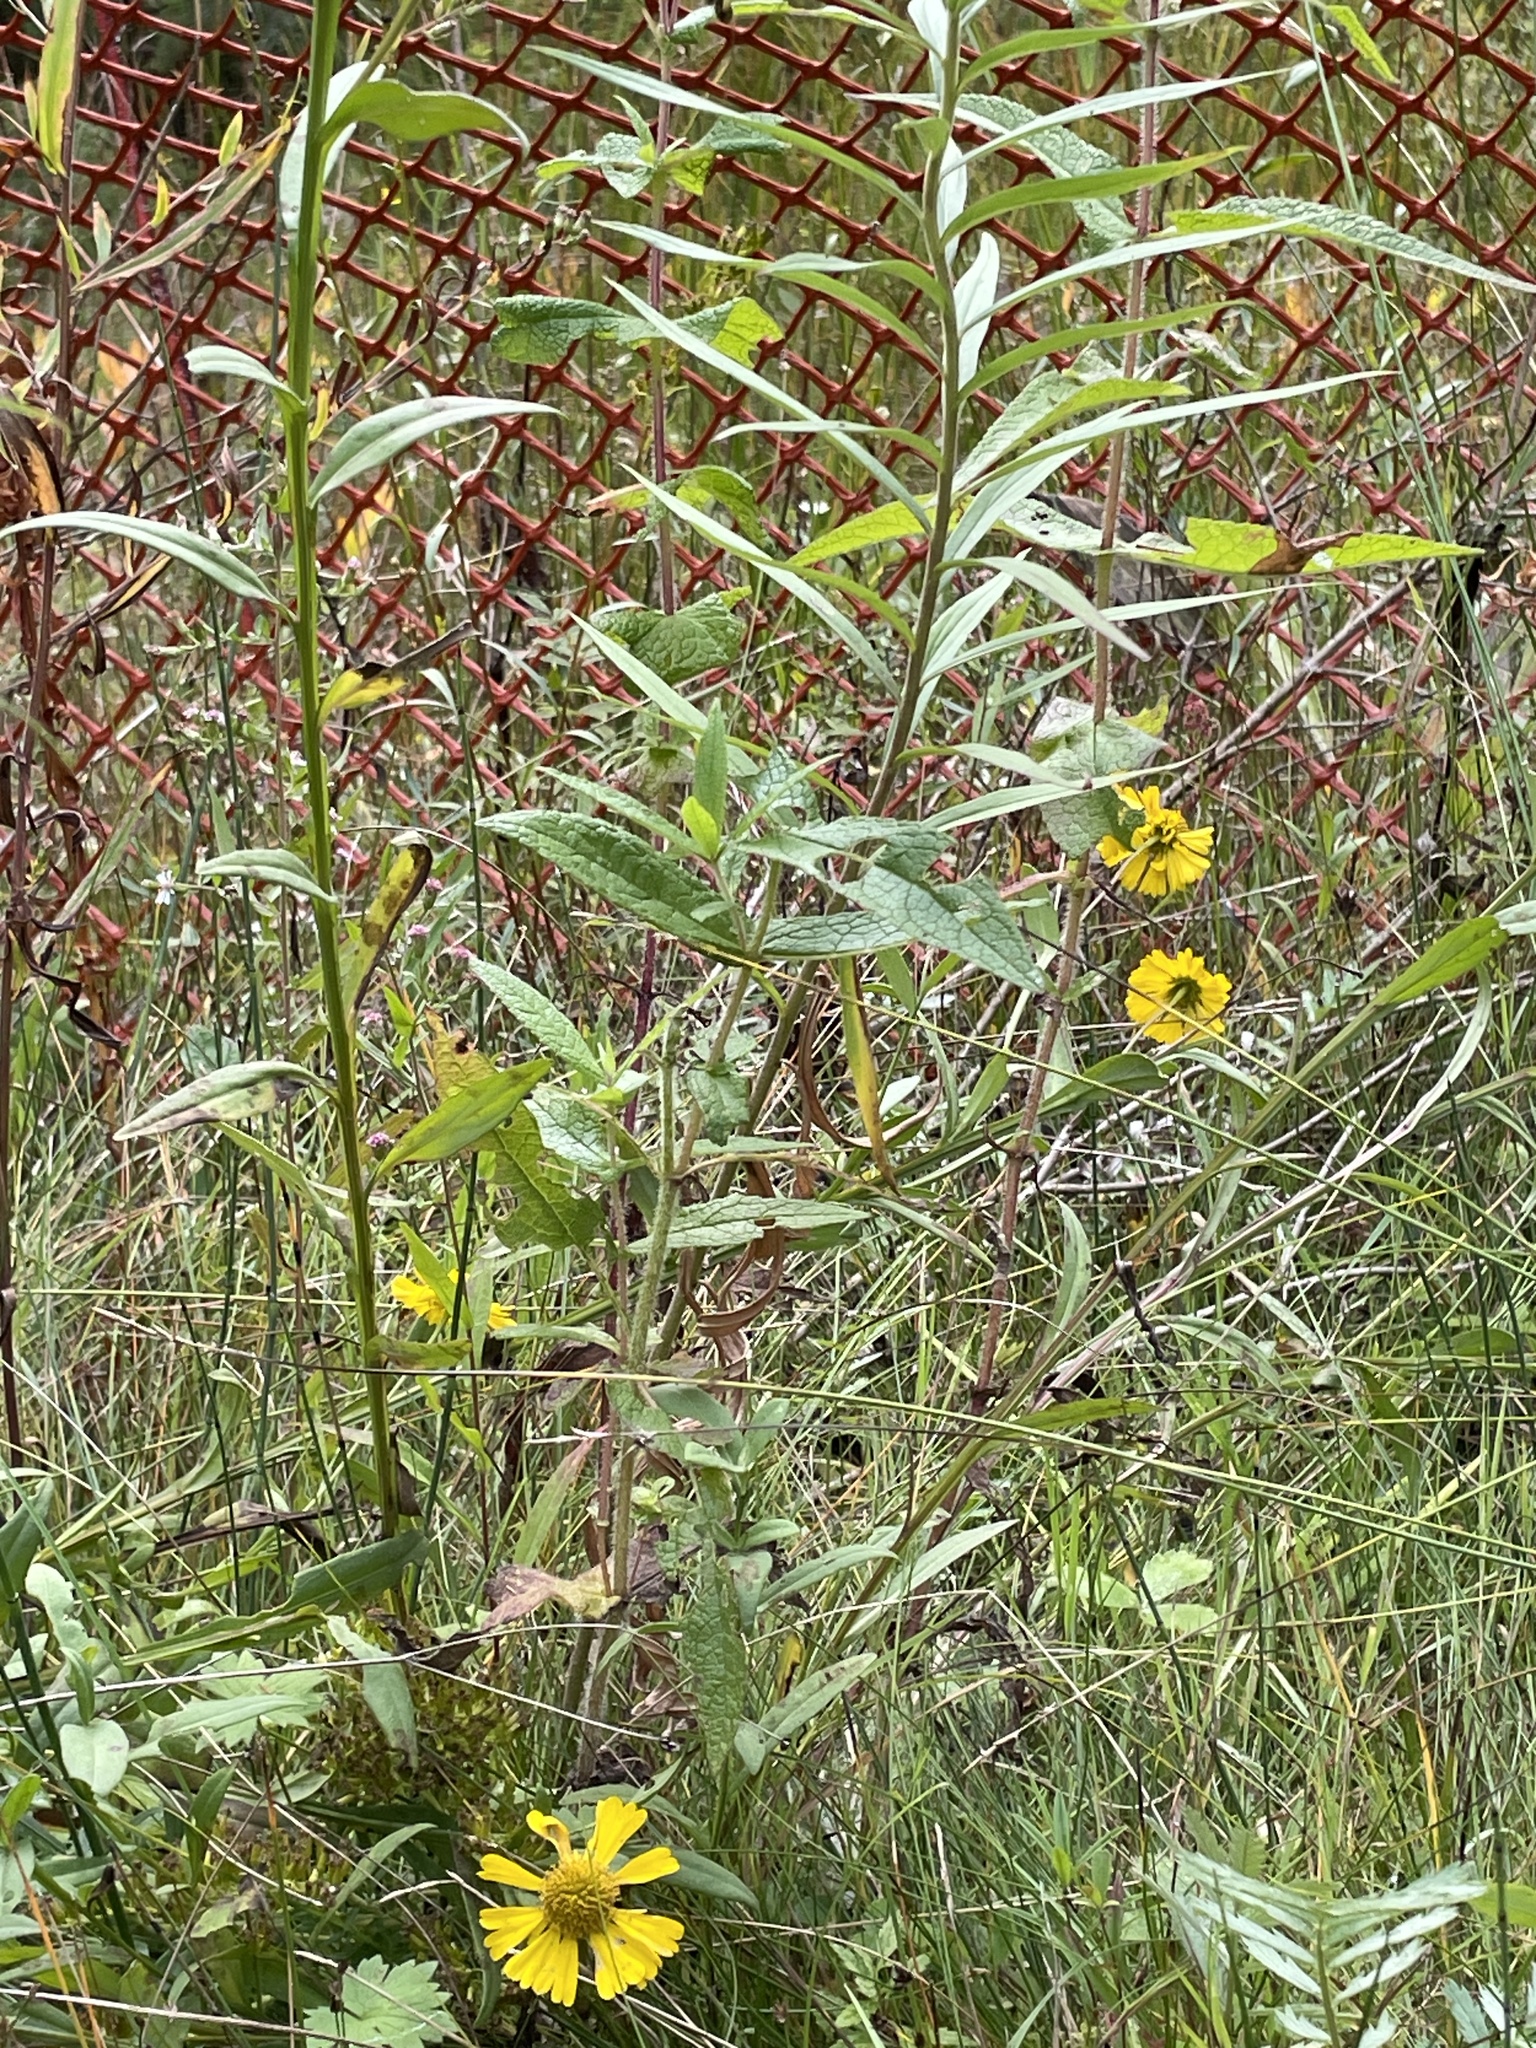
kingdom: Plantae
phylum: Tracheophyta
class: Magnoliopsida
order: Asterales
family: Asteraceae
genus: Helenium
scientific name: Helenium autumnale
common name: Sneezeweed
